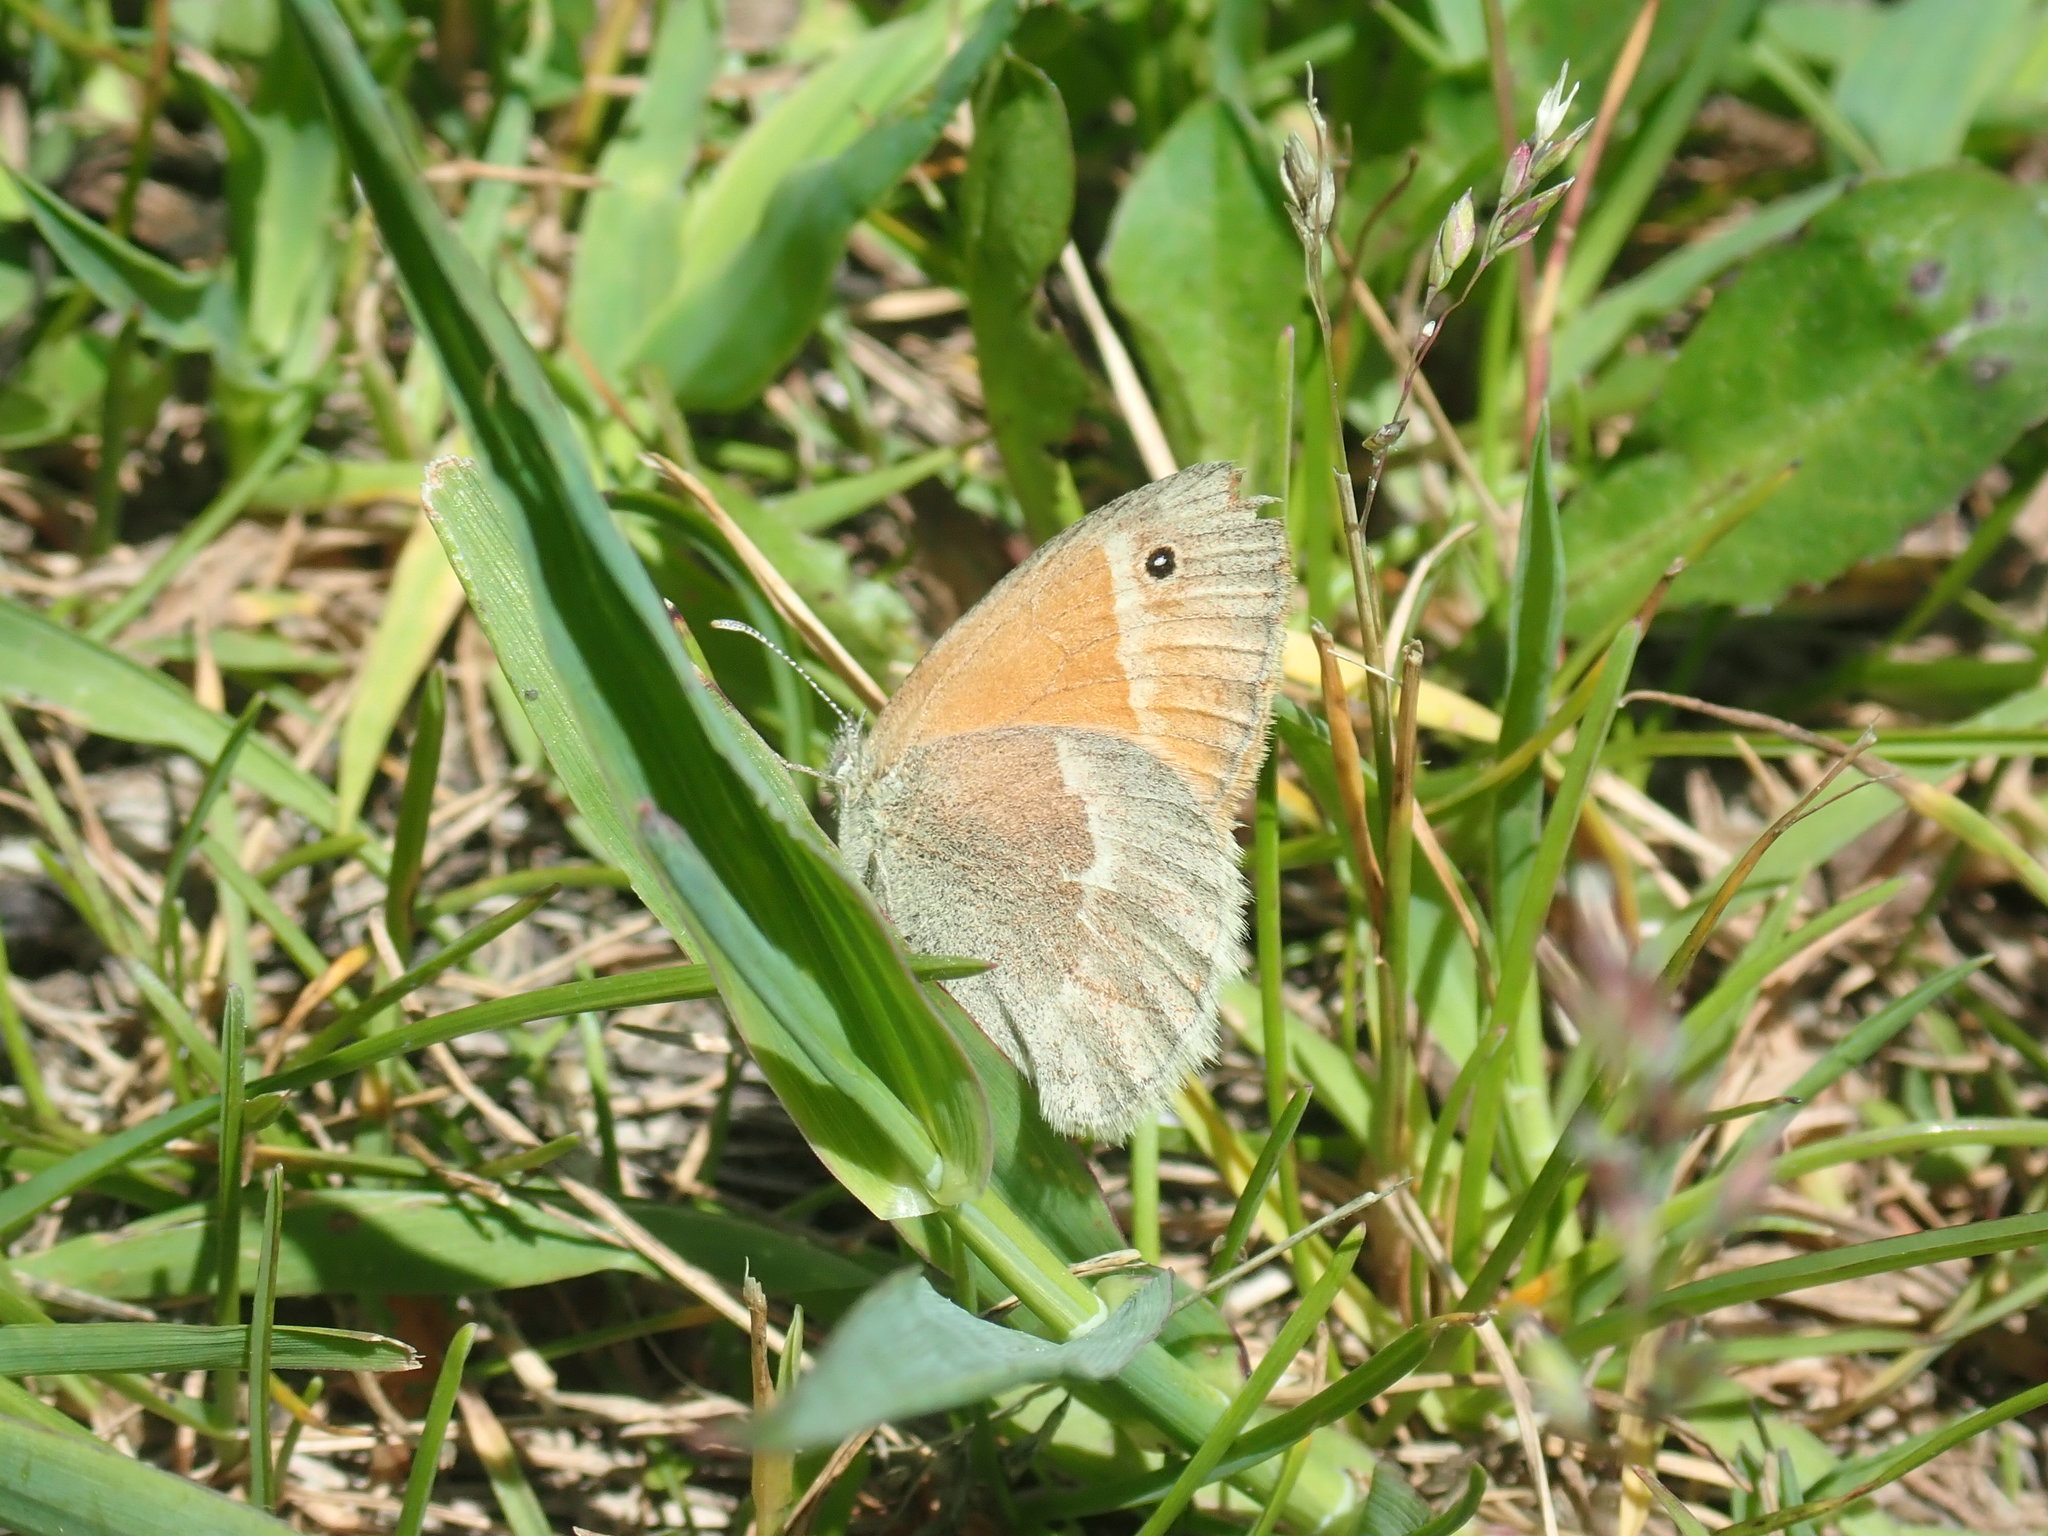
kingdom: Animalia
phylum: Arthropoda
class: Insecta
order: Lepidoptera
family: Nymphalidae
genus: Coenonympha
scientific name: Coenonympha california
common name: Common ringlet
